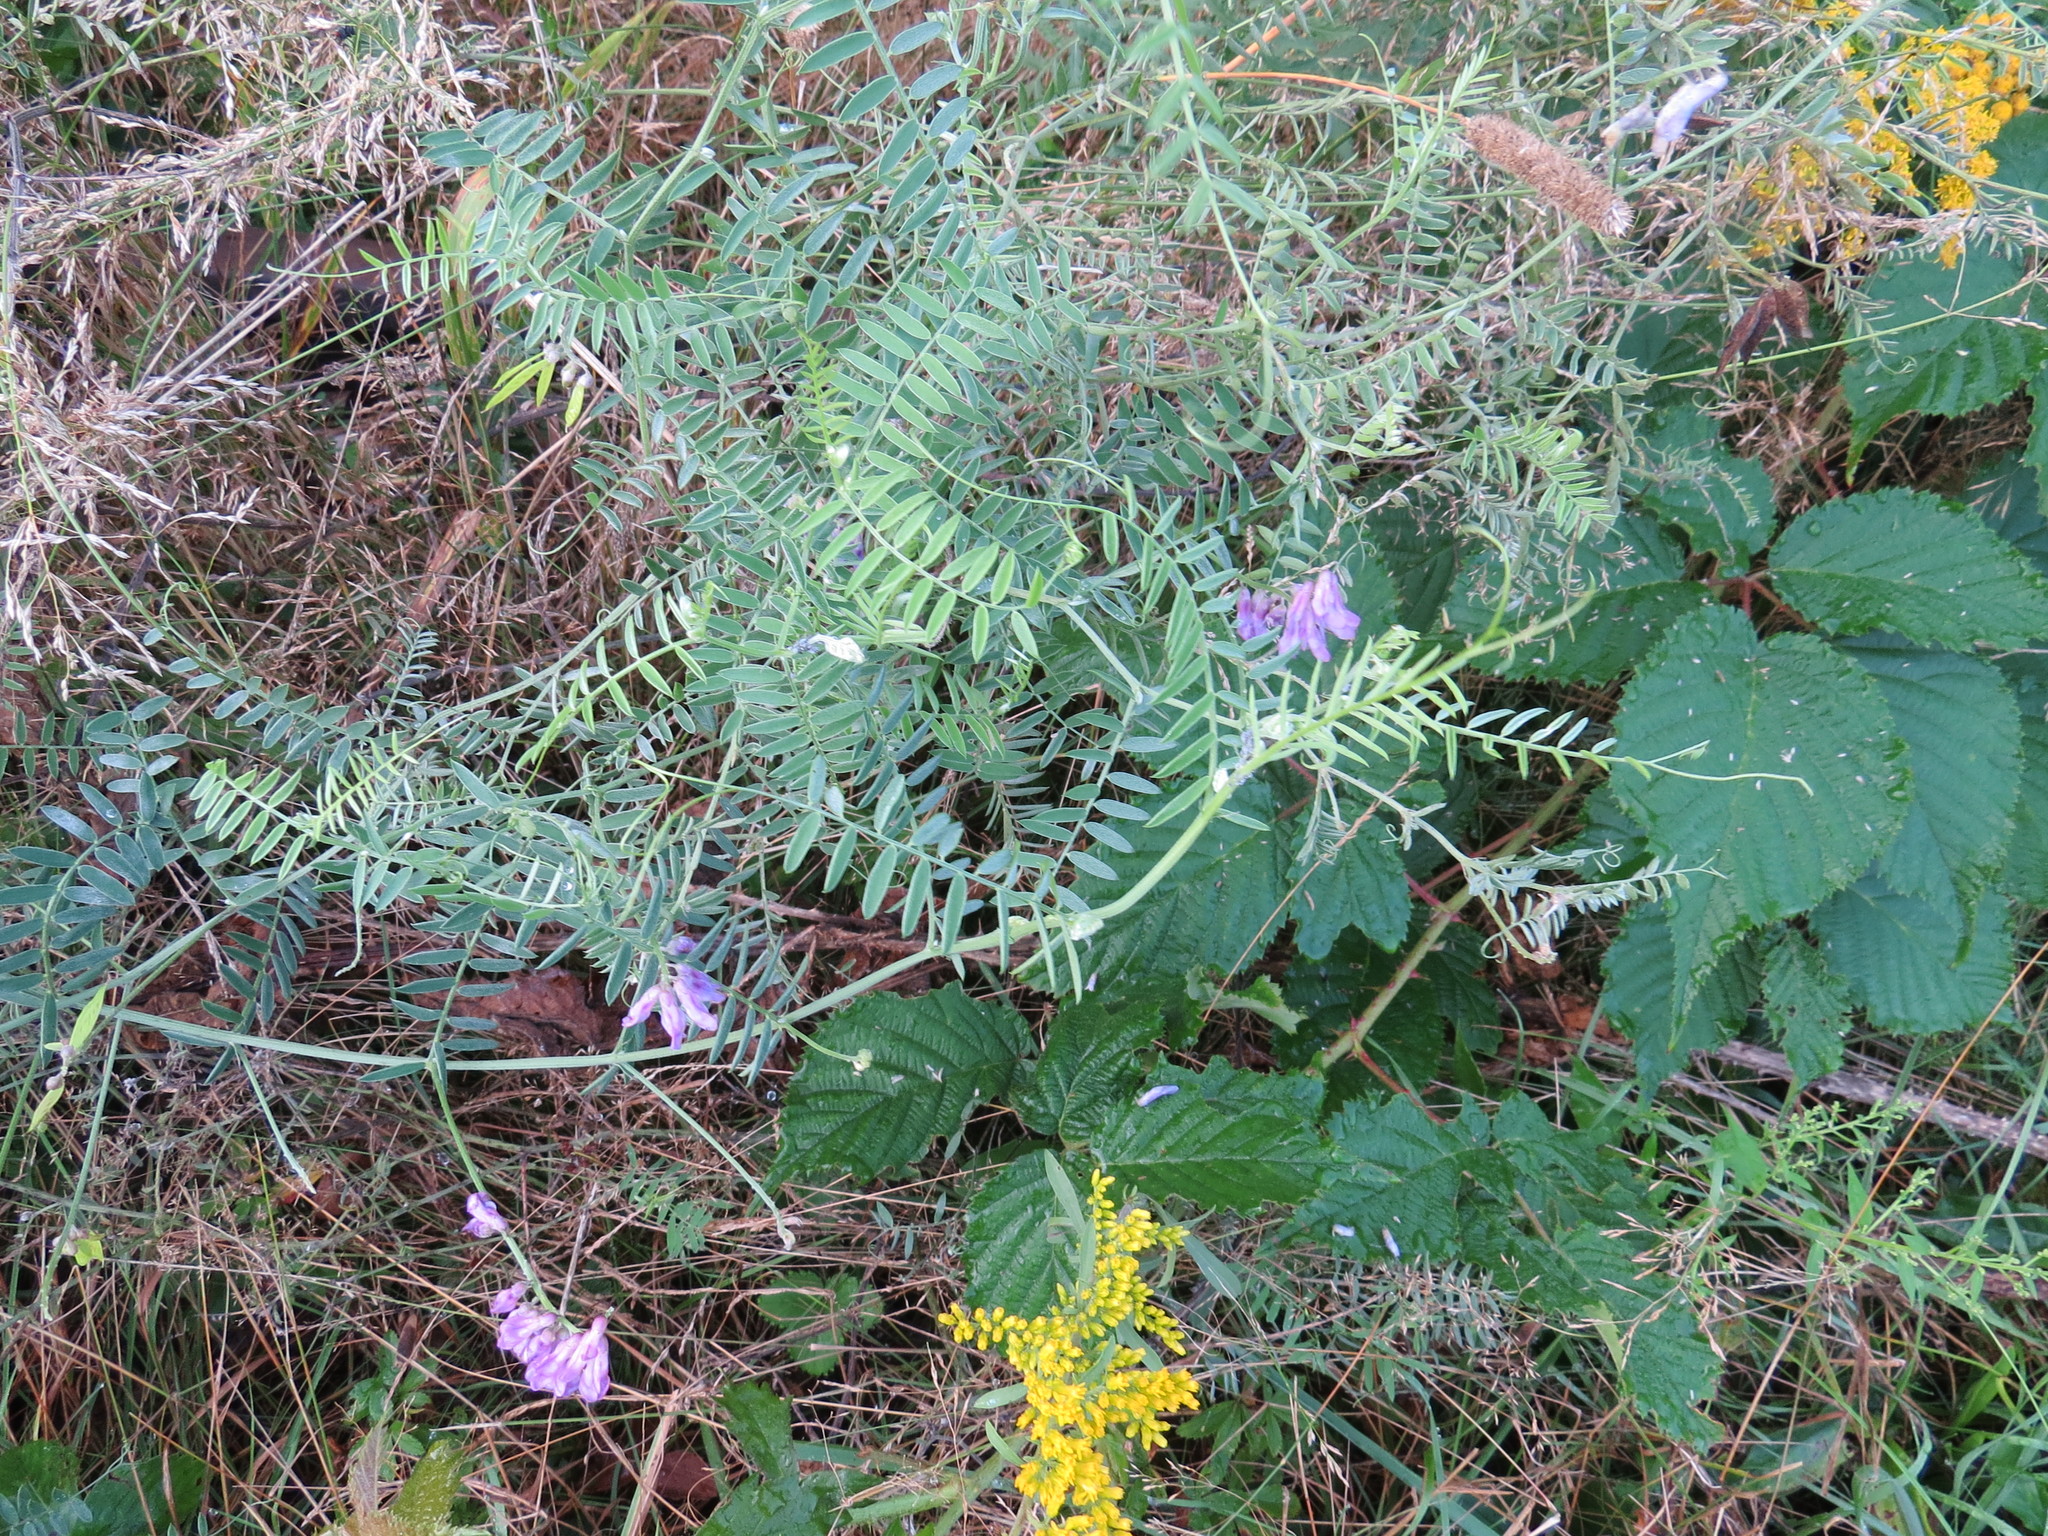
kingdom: Plantae
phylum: Tracheophyta
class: Magnoliopsida
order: Fabales
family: Fabaceae
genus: Vicia
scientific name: Vicia cracca
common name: Bird vetch
